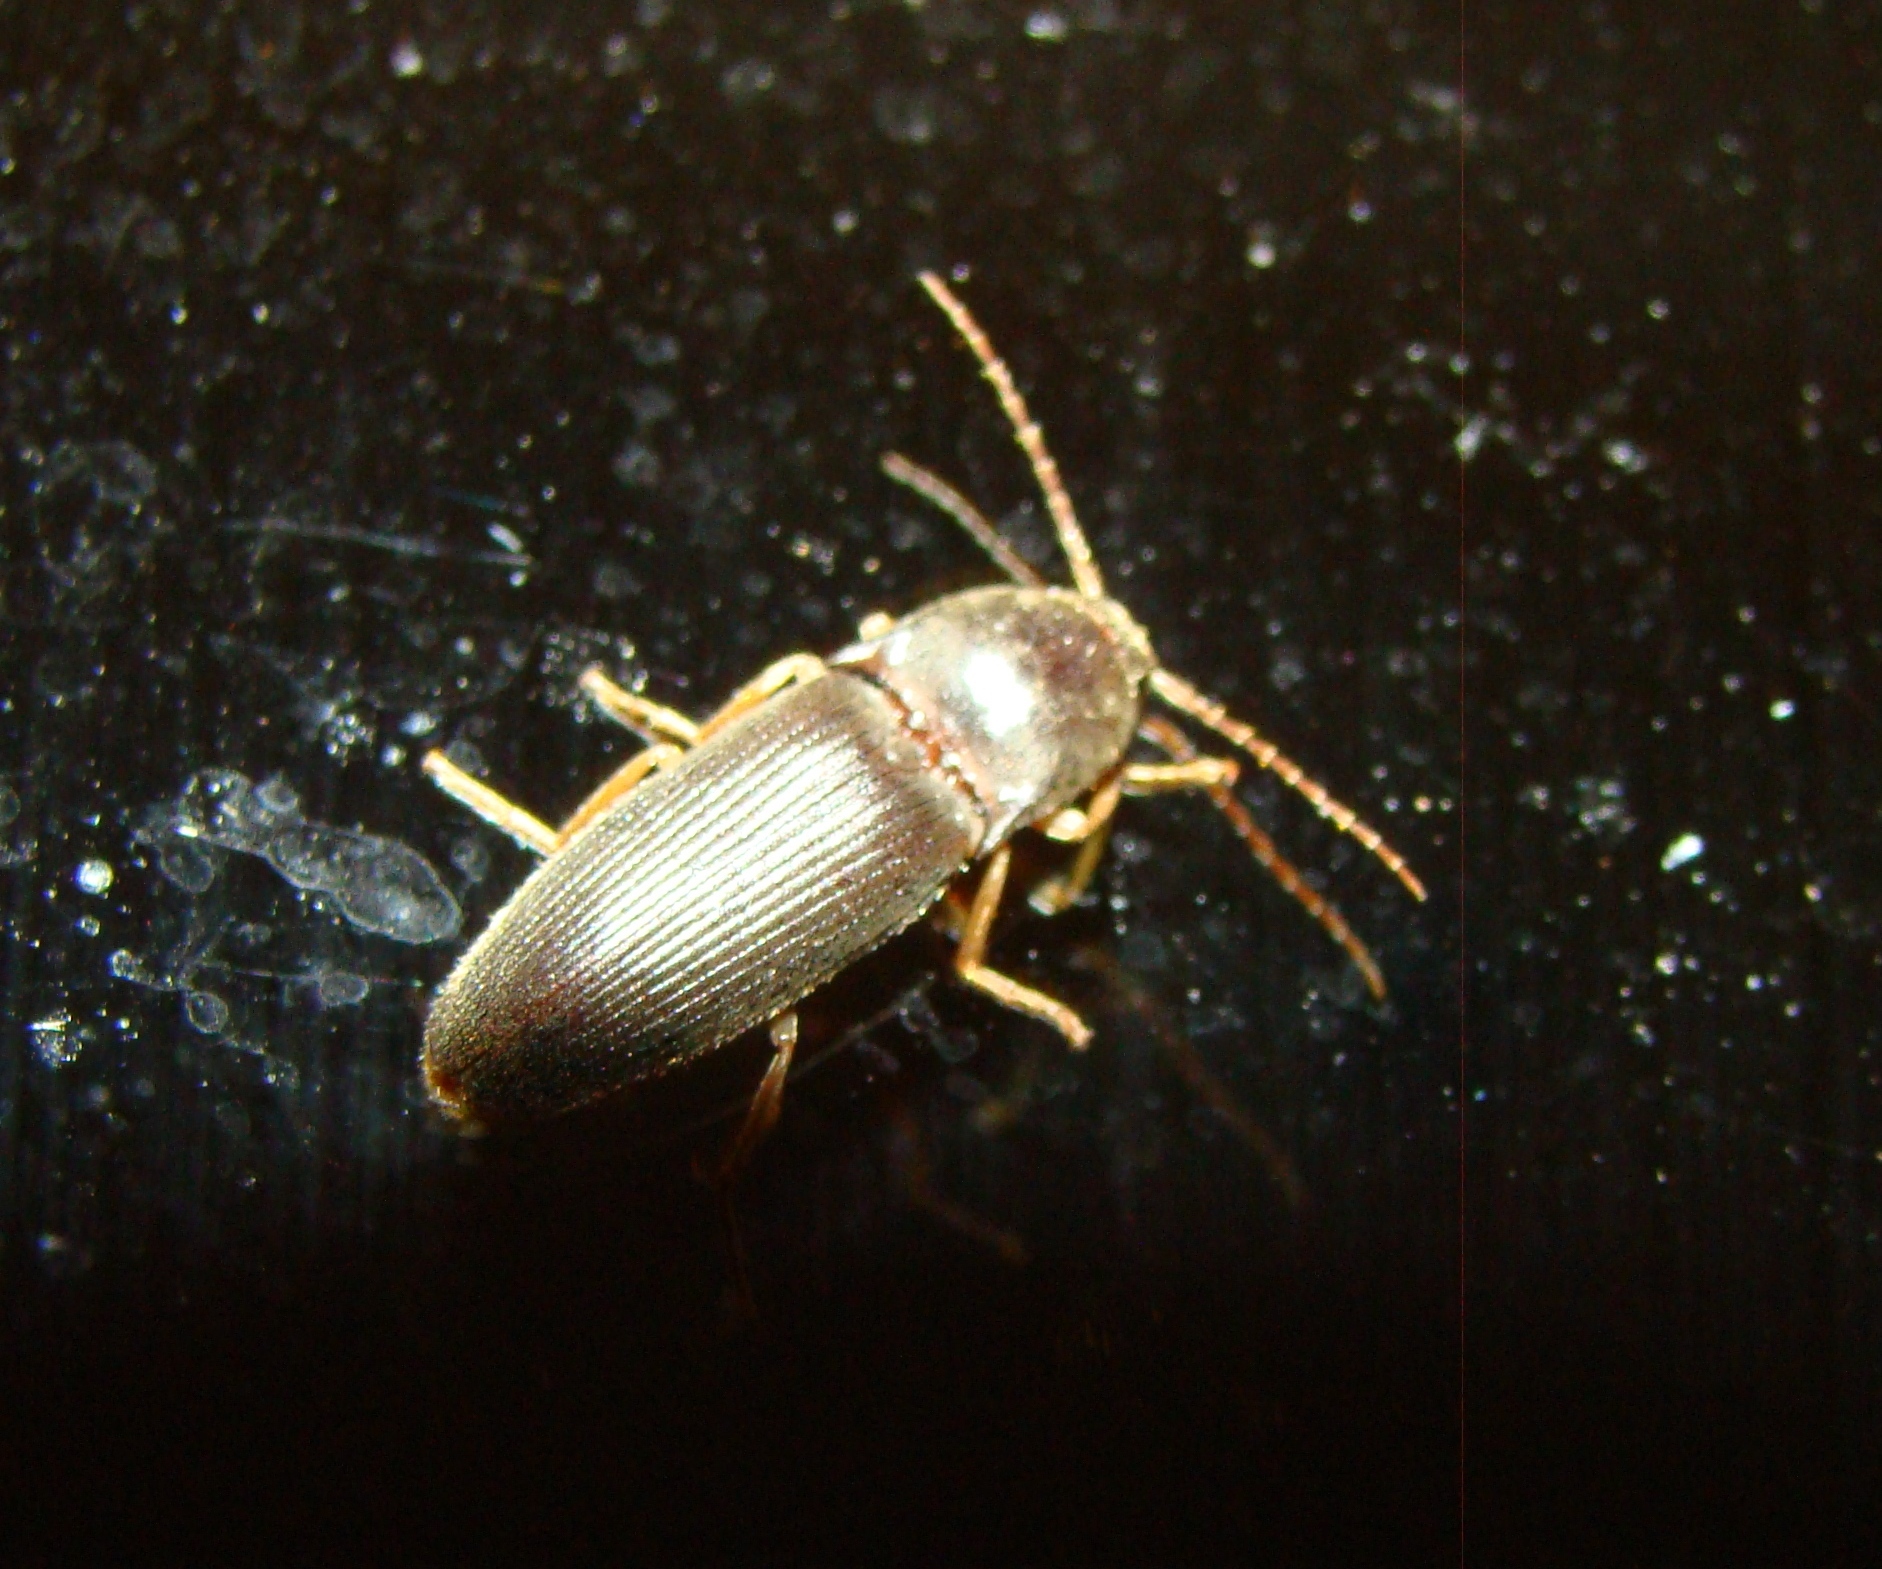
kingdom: Animalia
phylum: Arthropoda
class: Insecta
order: Coleoptera
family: Elateridae
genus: Conoderus
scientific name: Conoderus exsul
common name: Click beetle
